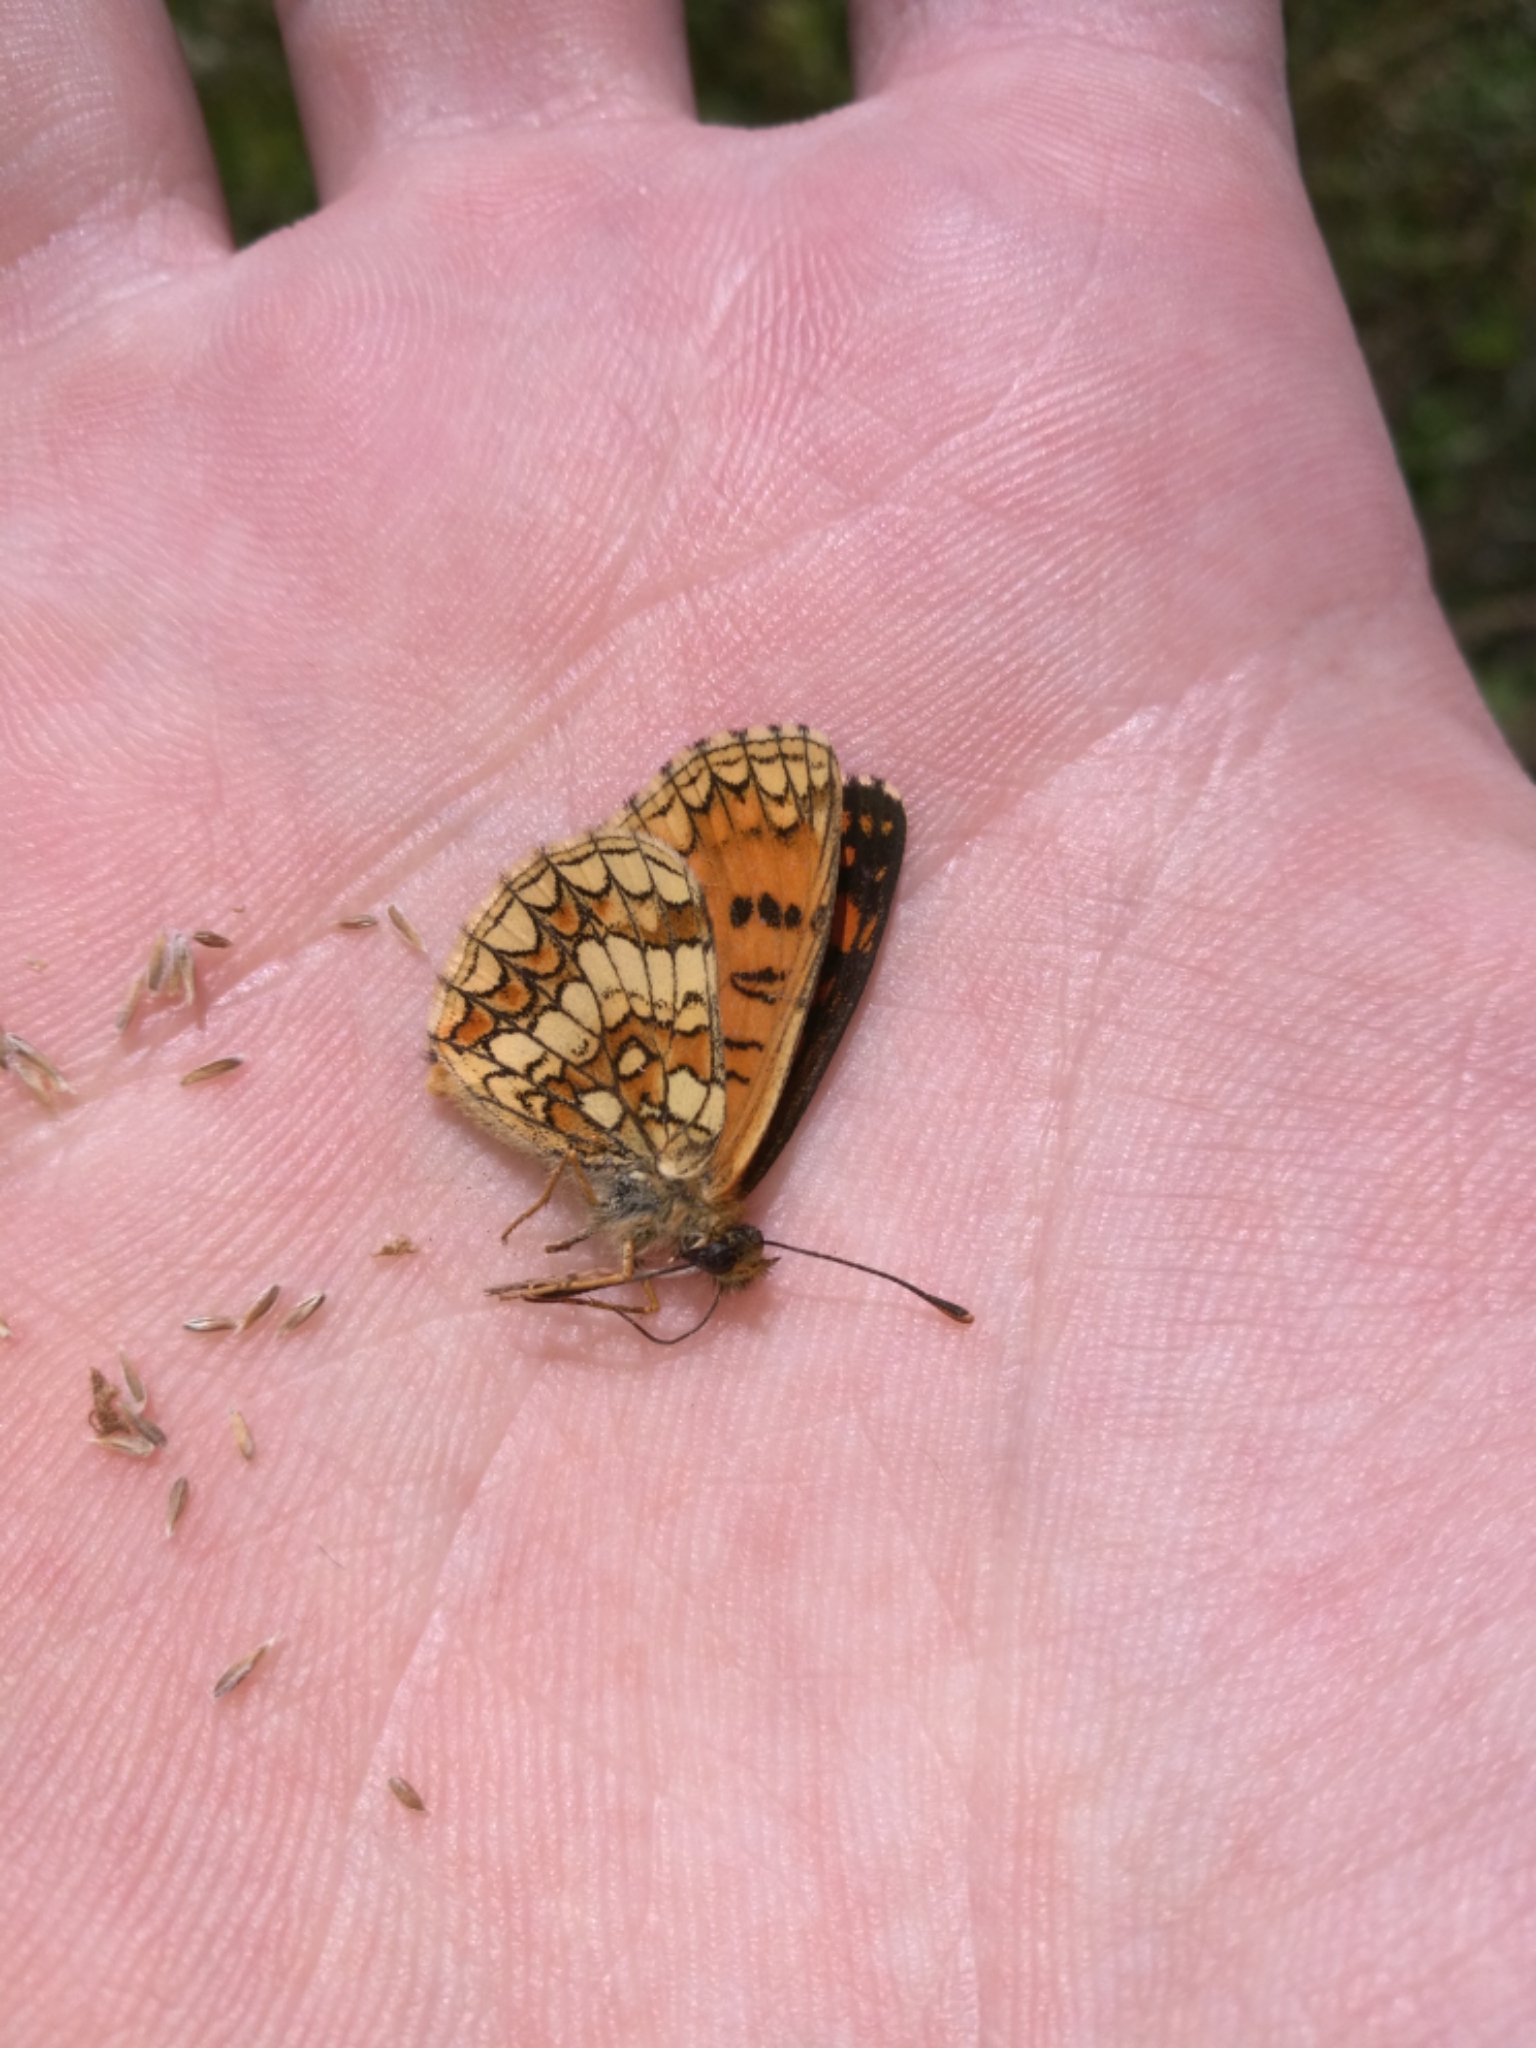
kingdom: Animalia
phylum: Arthropoda
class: Insecta
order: Lepidoptera
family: Nymphalidae
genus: Mellicta
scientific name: Mellicta athalia
